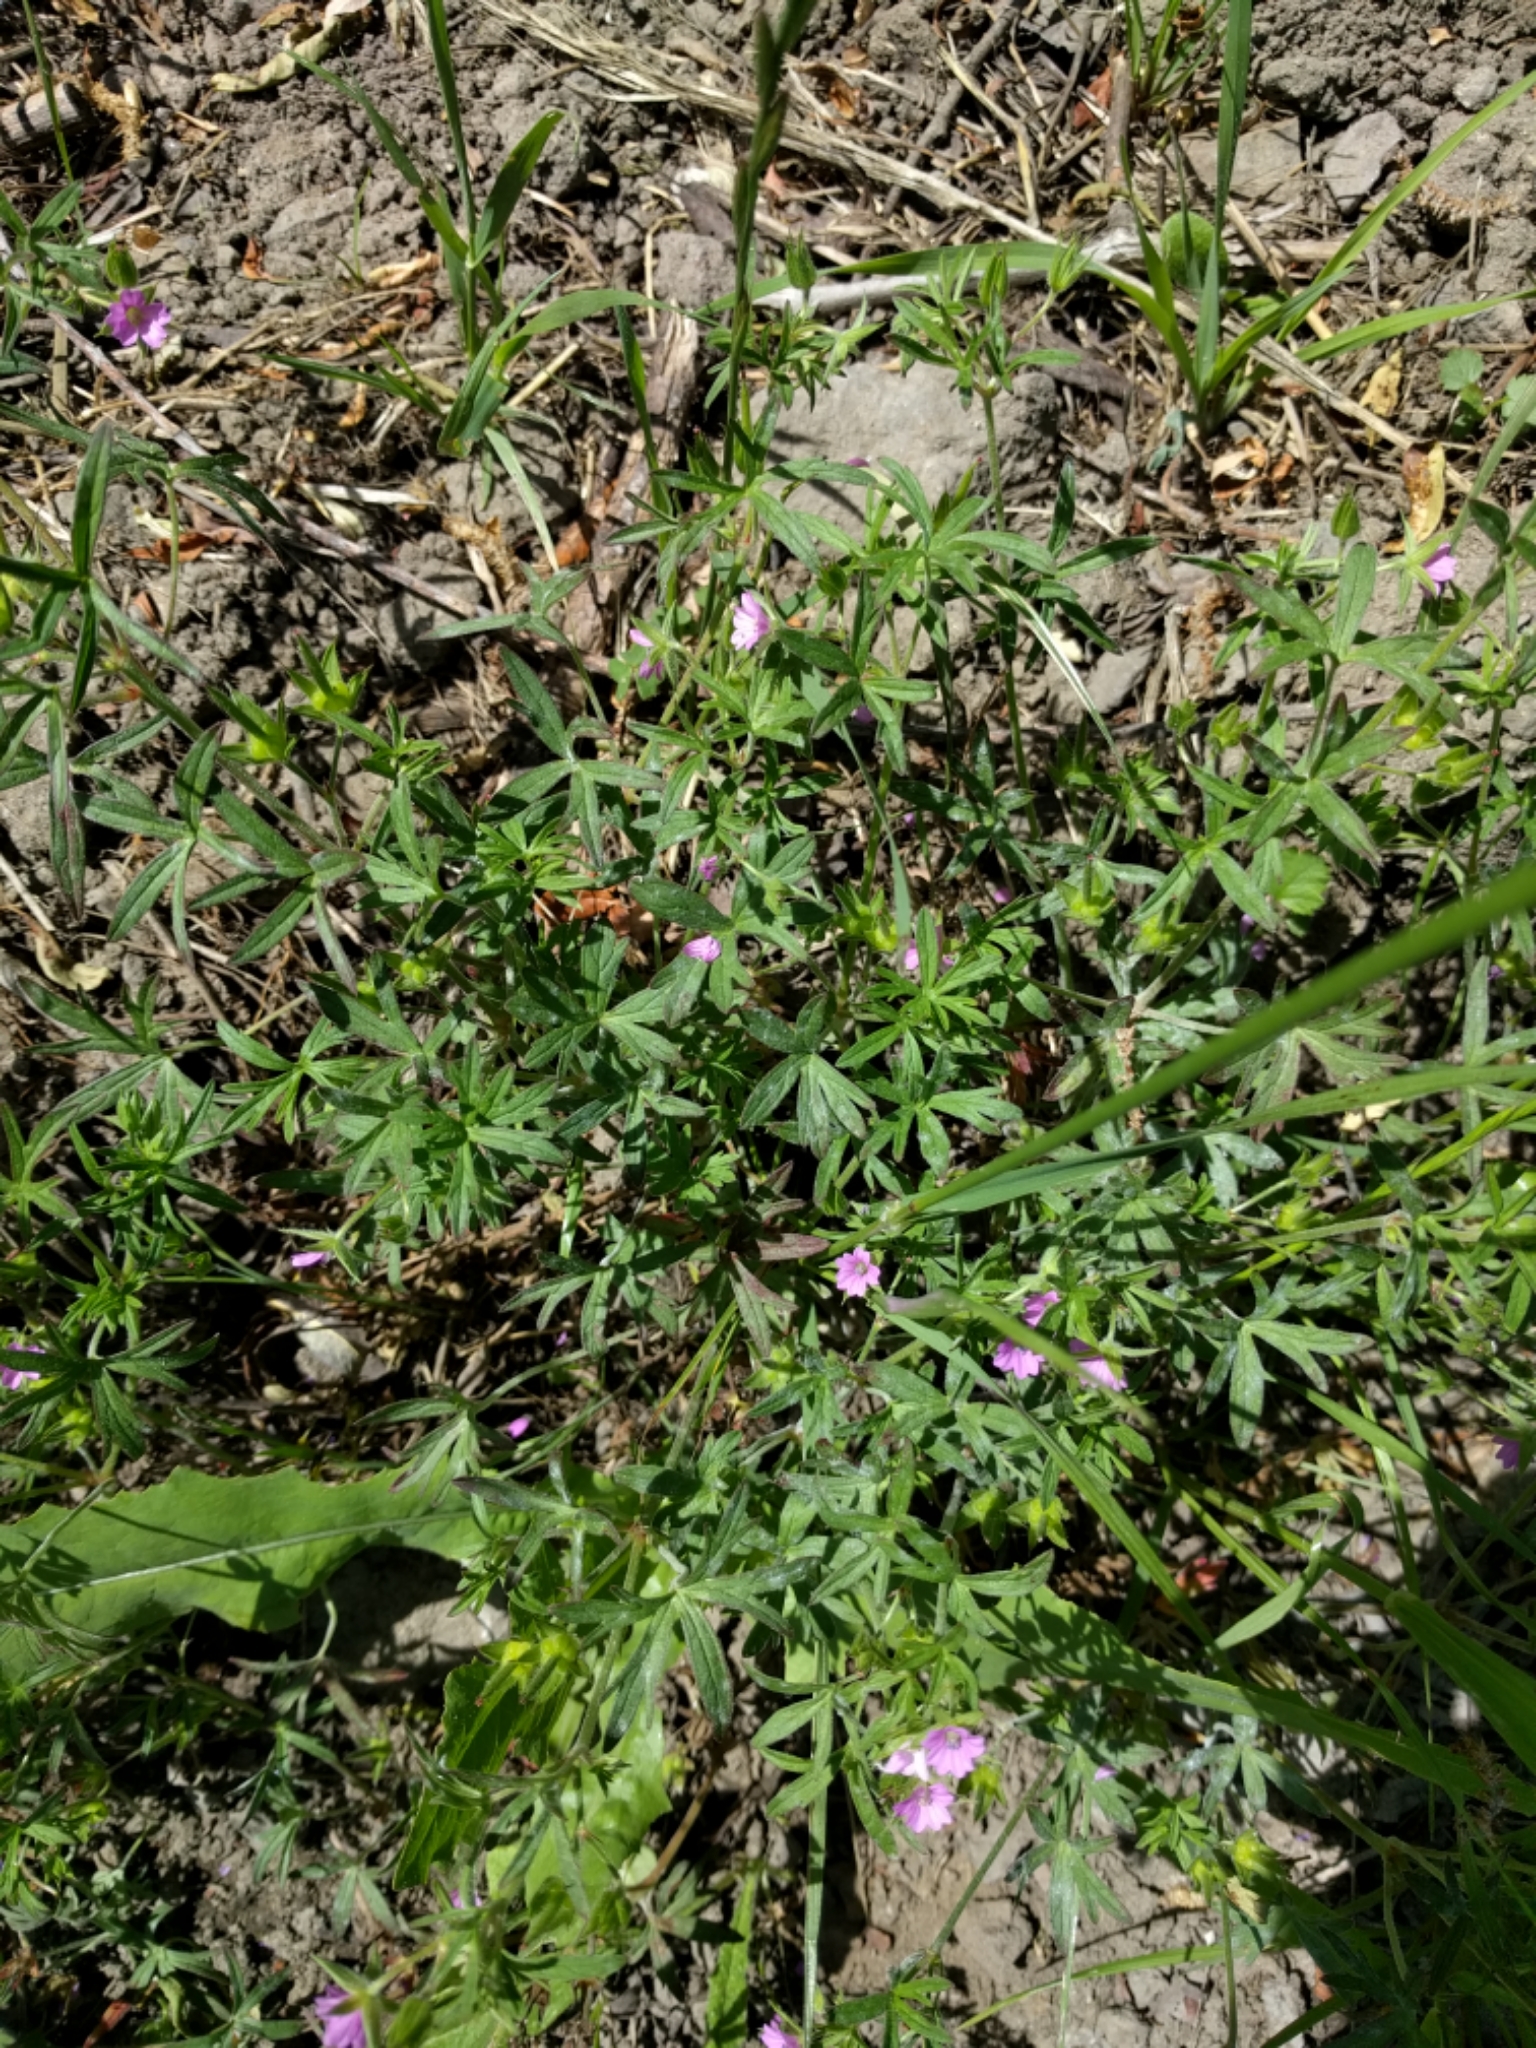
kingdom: Plantae
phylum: Tracheophyta
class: Magnoliopsida
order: Geraniales
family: Geraniaceae
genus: Geranium
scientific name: Geranium dissectum
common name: Cut-leaved crane's-bill
